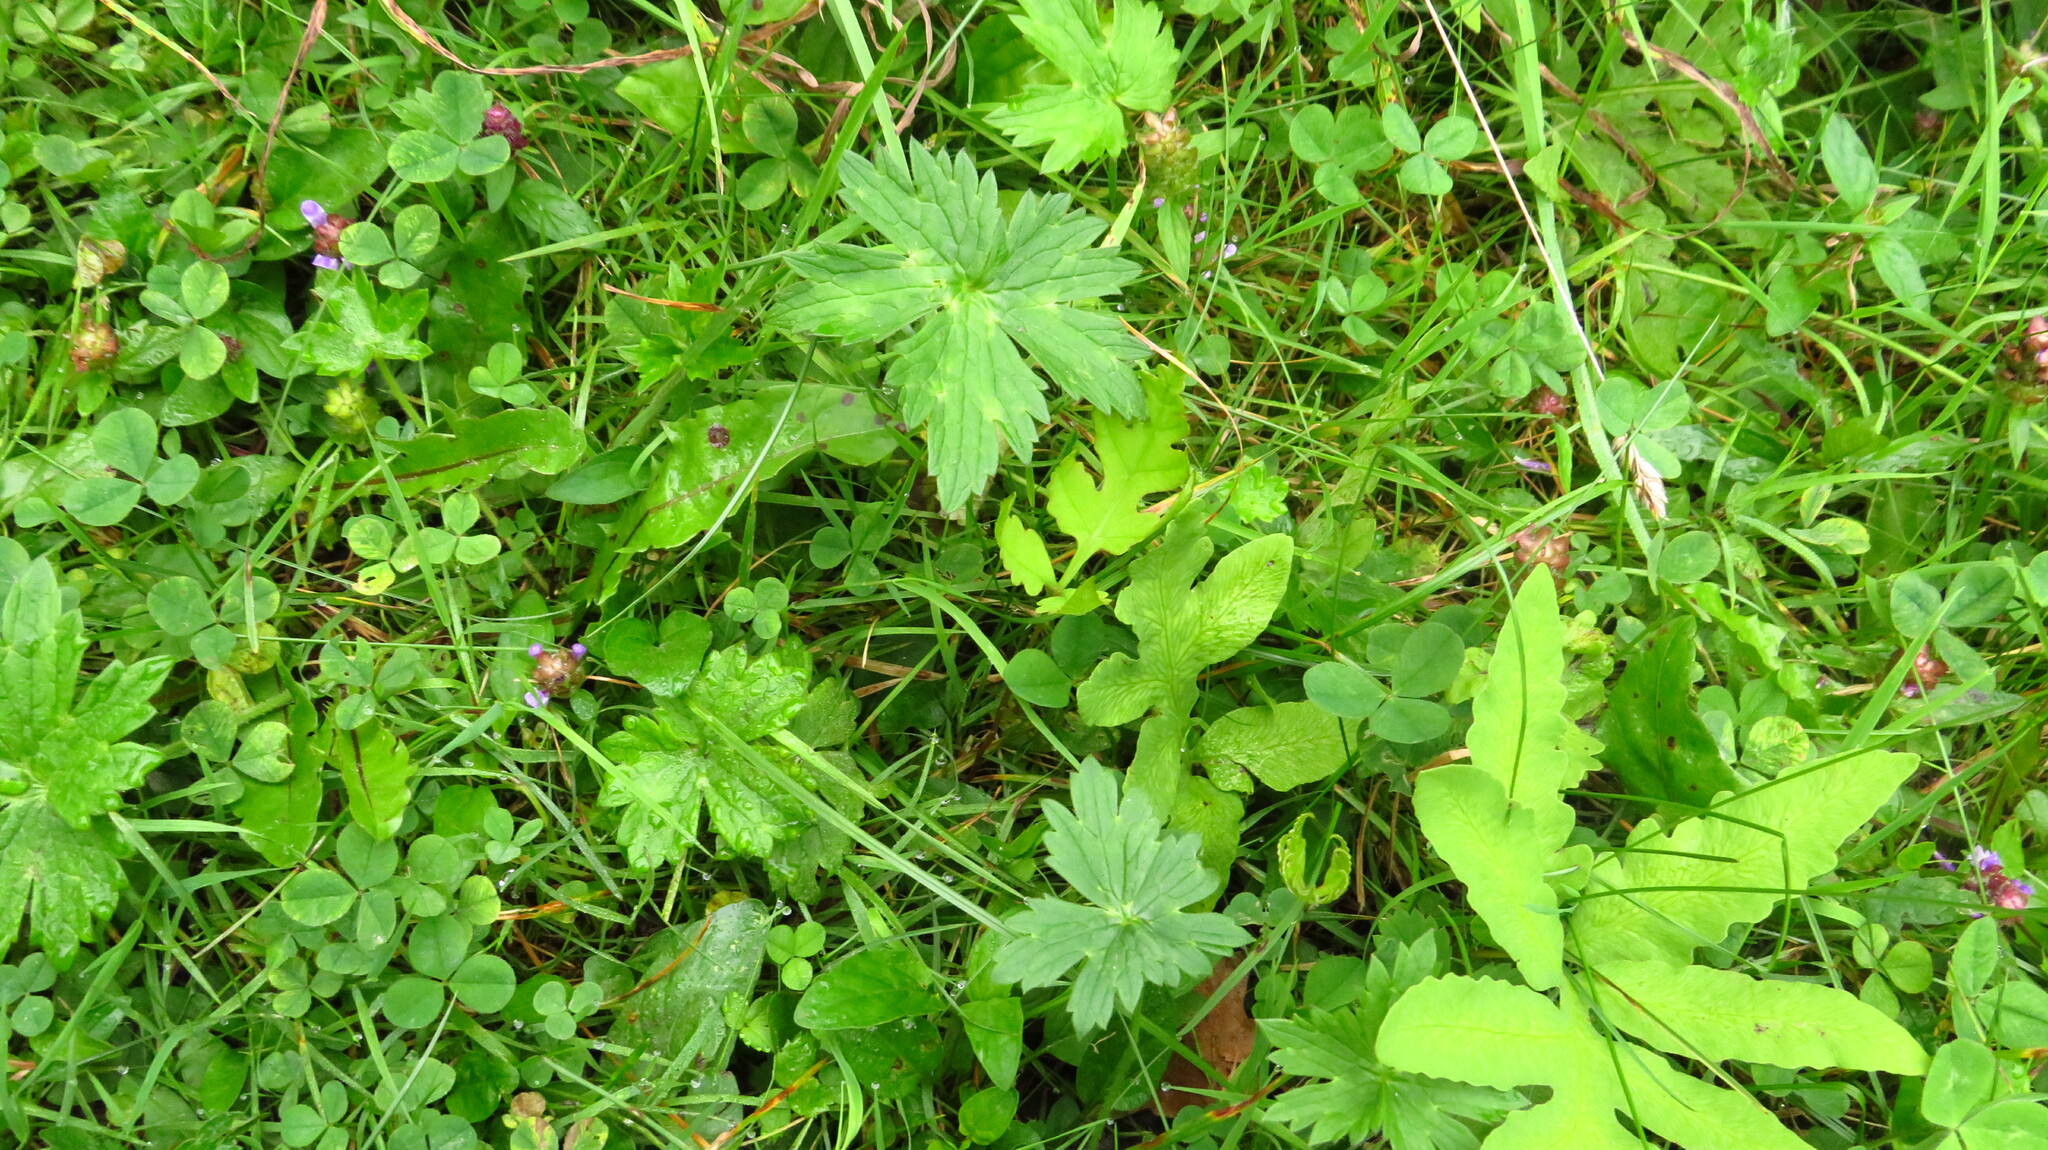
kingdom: Plantae
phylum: Tracheophyta
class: Polypodiopsida
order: Polypodiales
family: Onocleaceae
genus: Onoclea
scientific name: Onoclea sensibilis
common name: Sensitive fern
